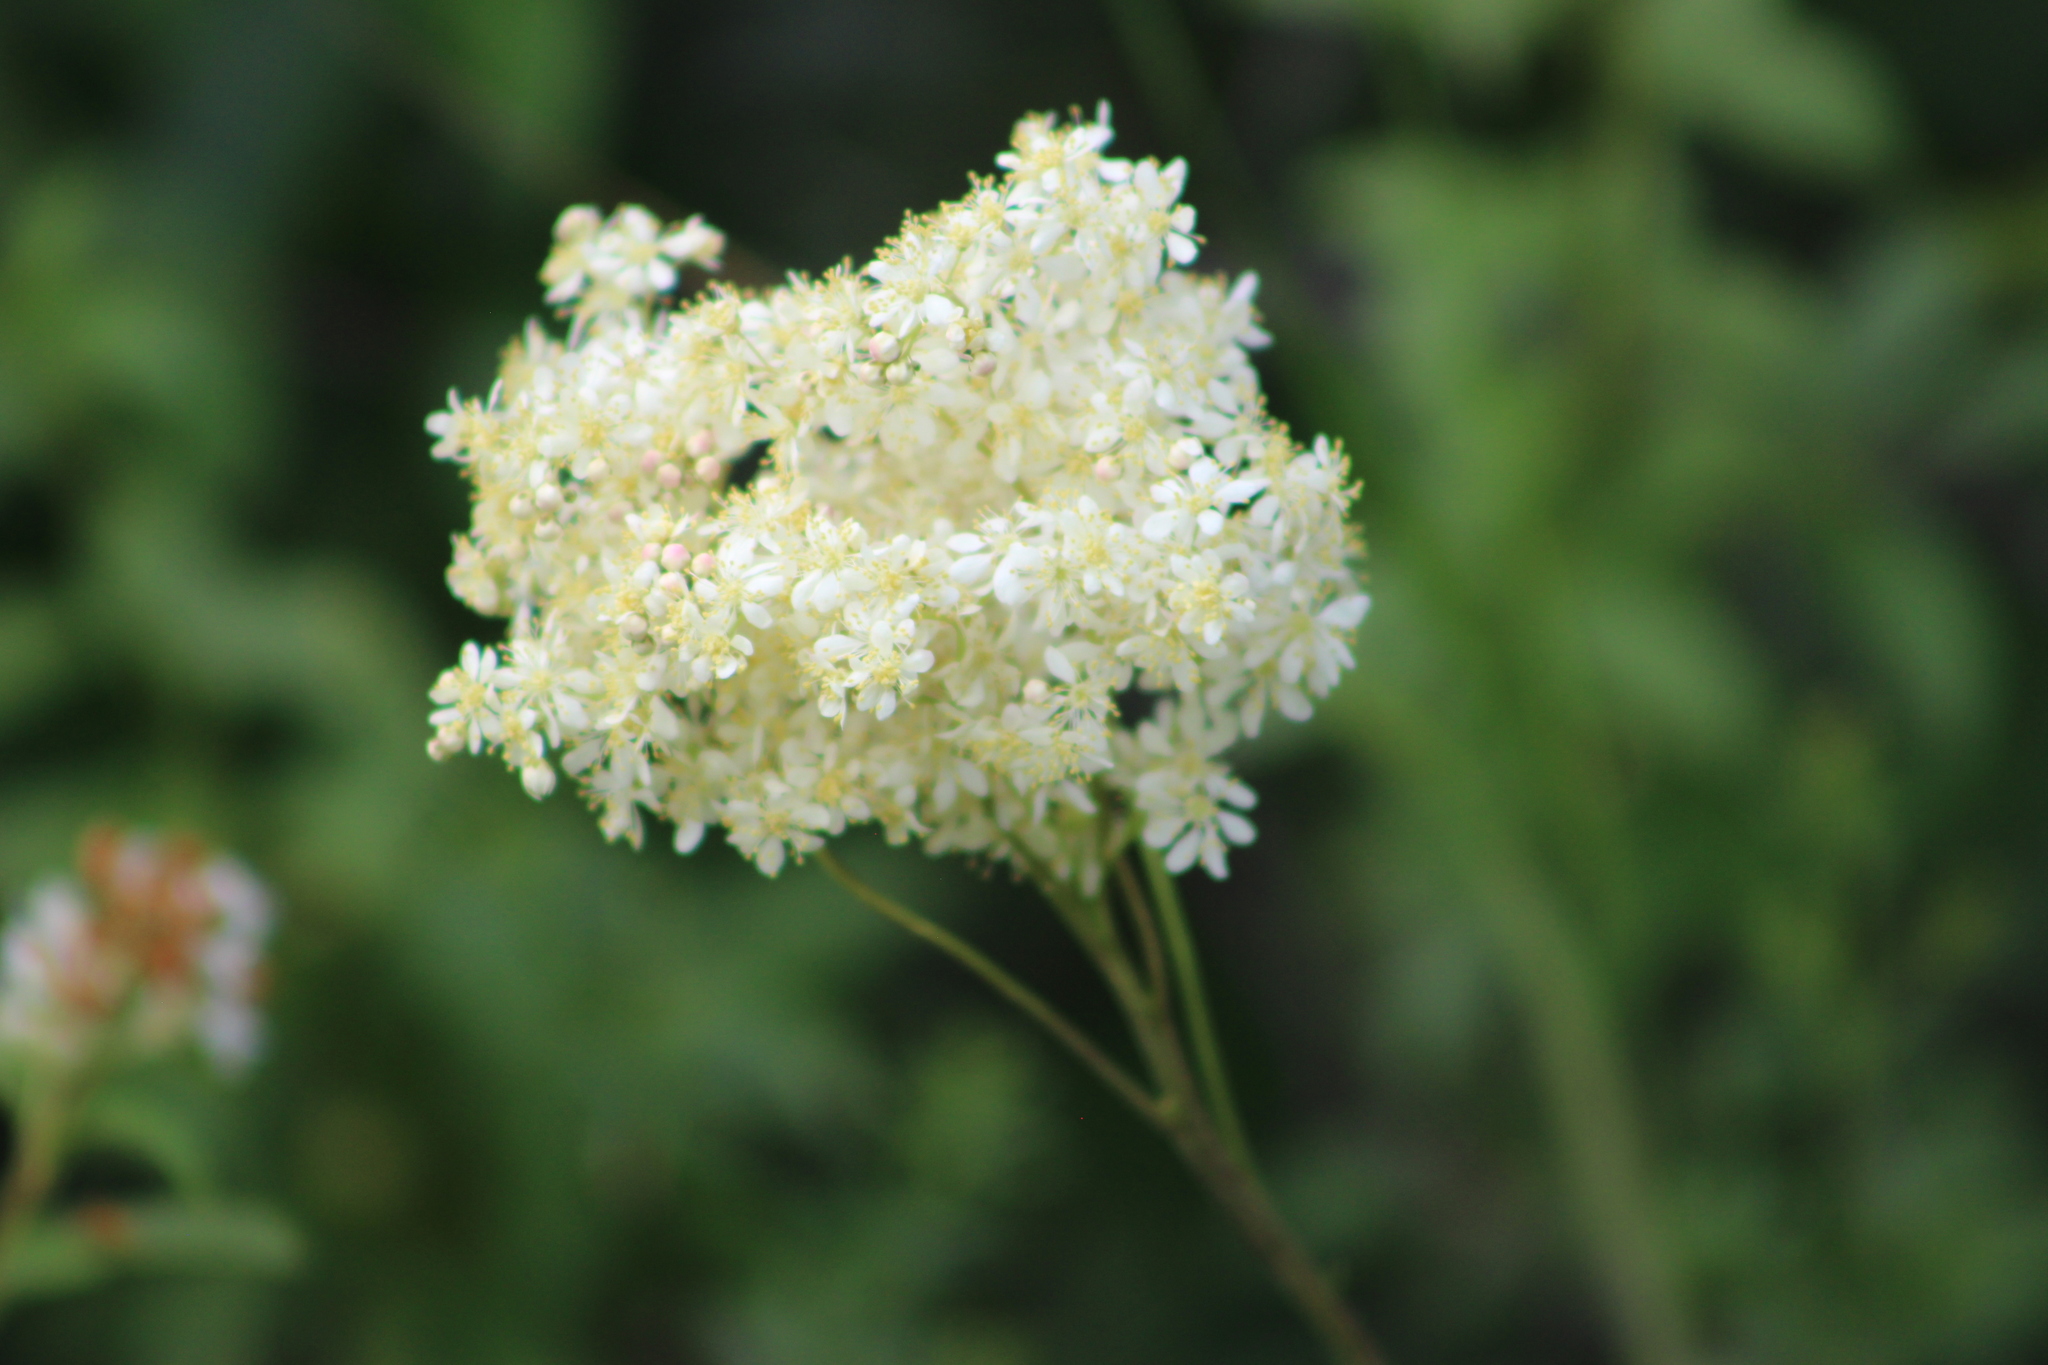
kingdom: Plantae
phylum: Tracheophyta
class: Magnoliopsida
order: Rosales
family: Rosaceae
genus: Filipendula
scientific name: Filipendula vulgaris
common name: Dropwort
